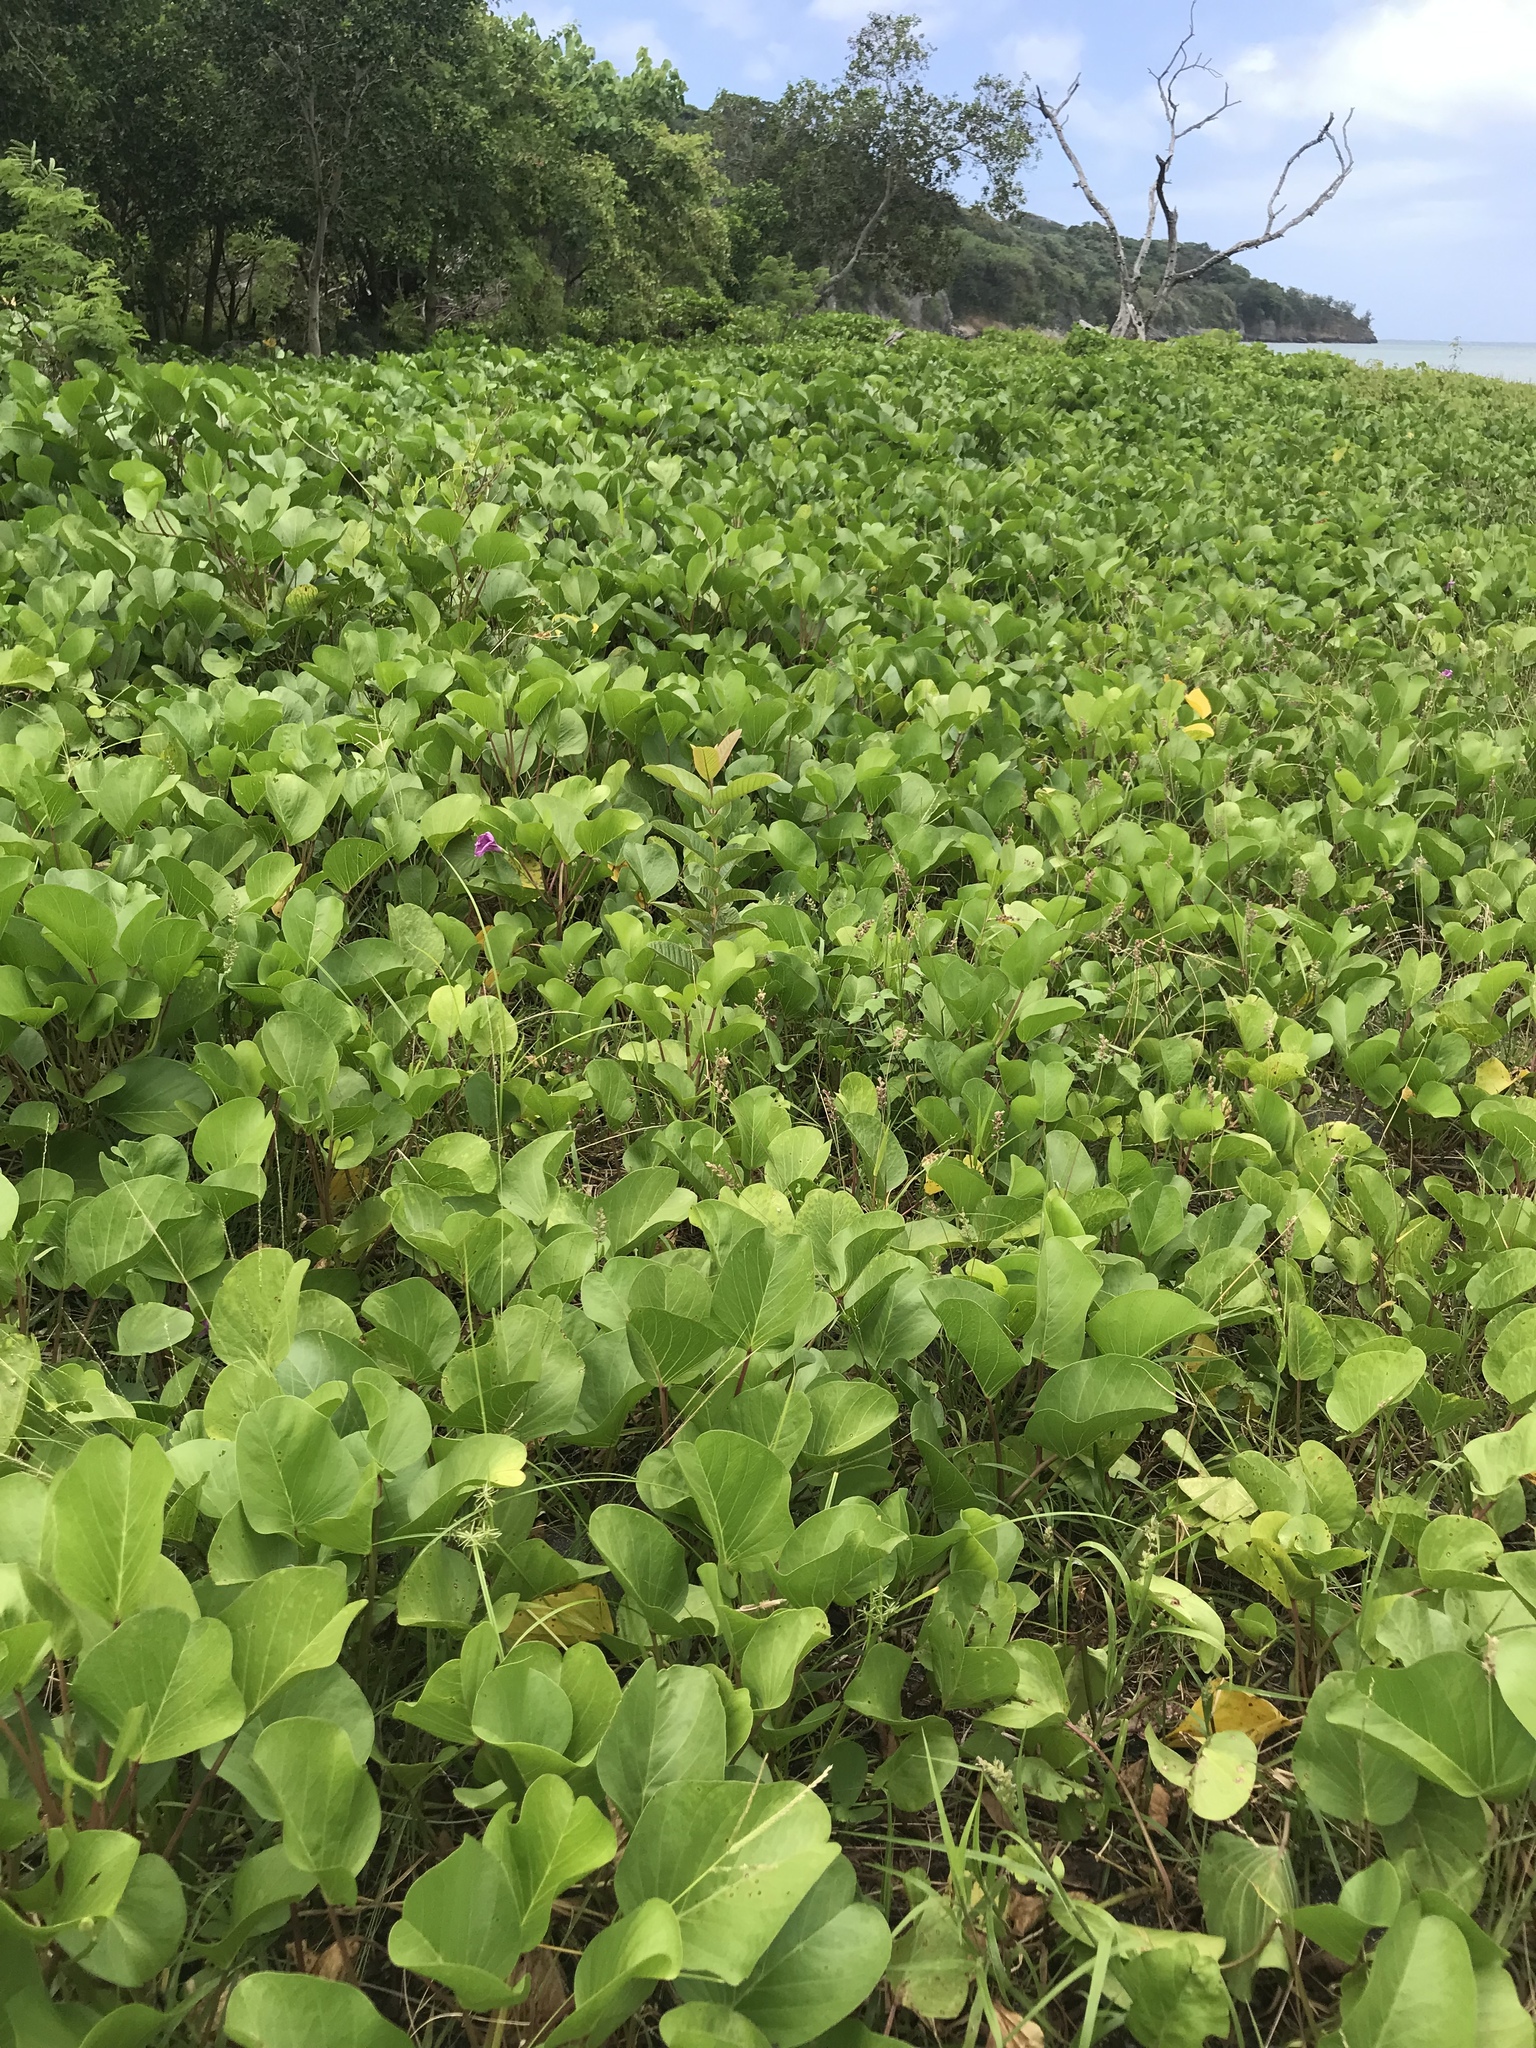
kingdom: Plantae
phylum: Tracheophyta
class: Magnoliopsida
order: Solanales
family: Convolvulaceae
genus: Ipomoea
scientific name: Ipomoea pes-caprae
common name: Beach morning glory
